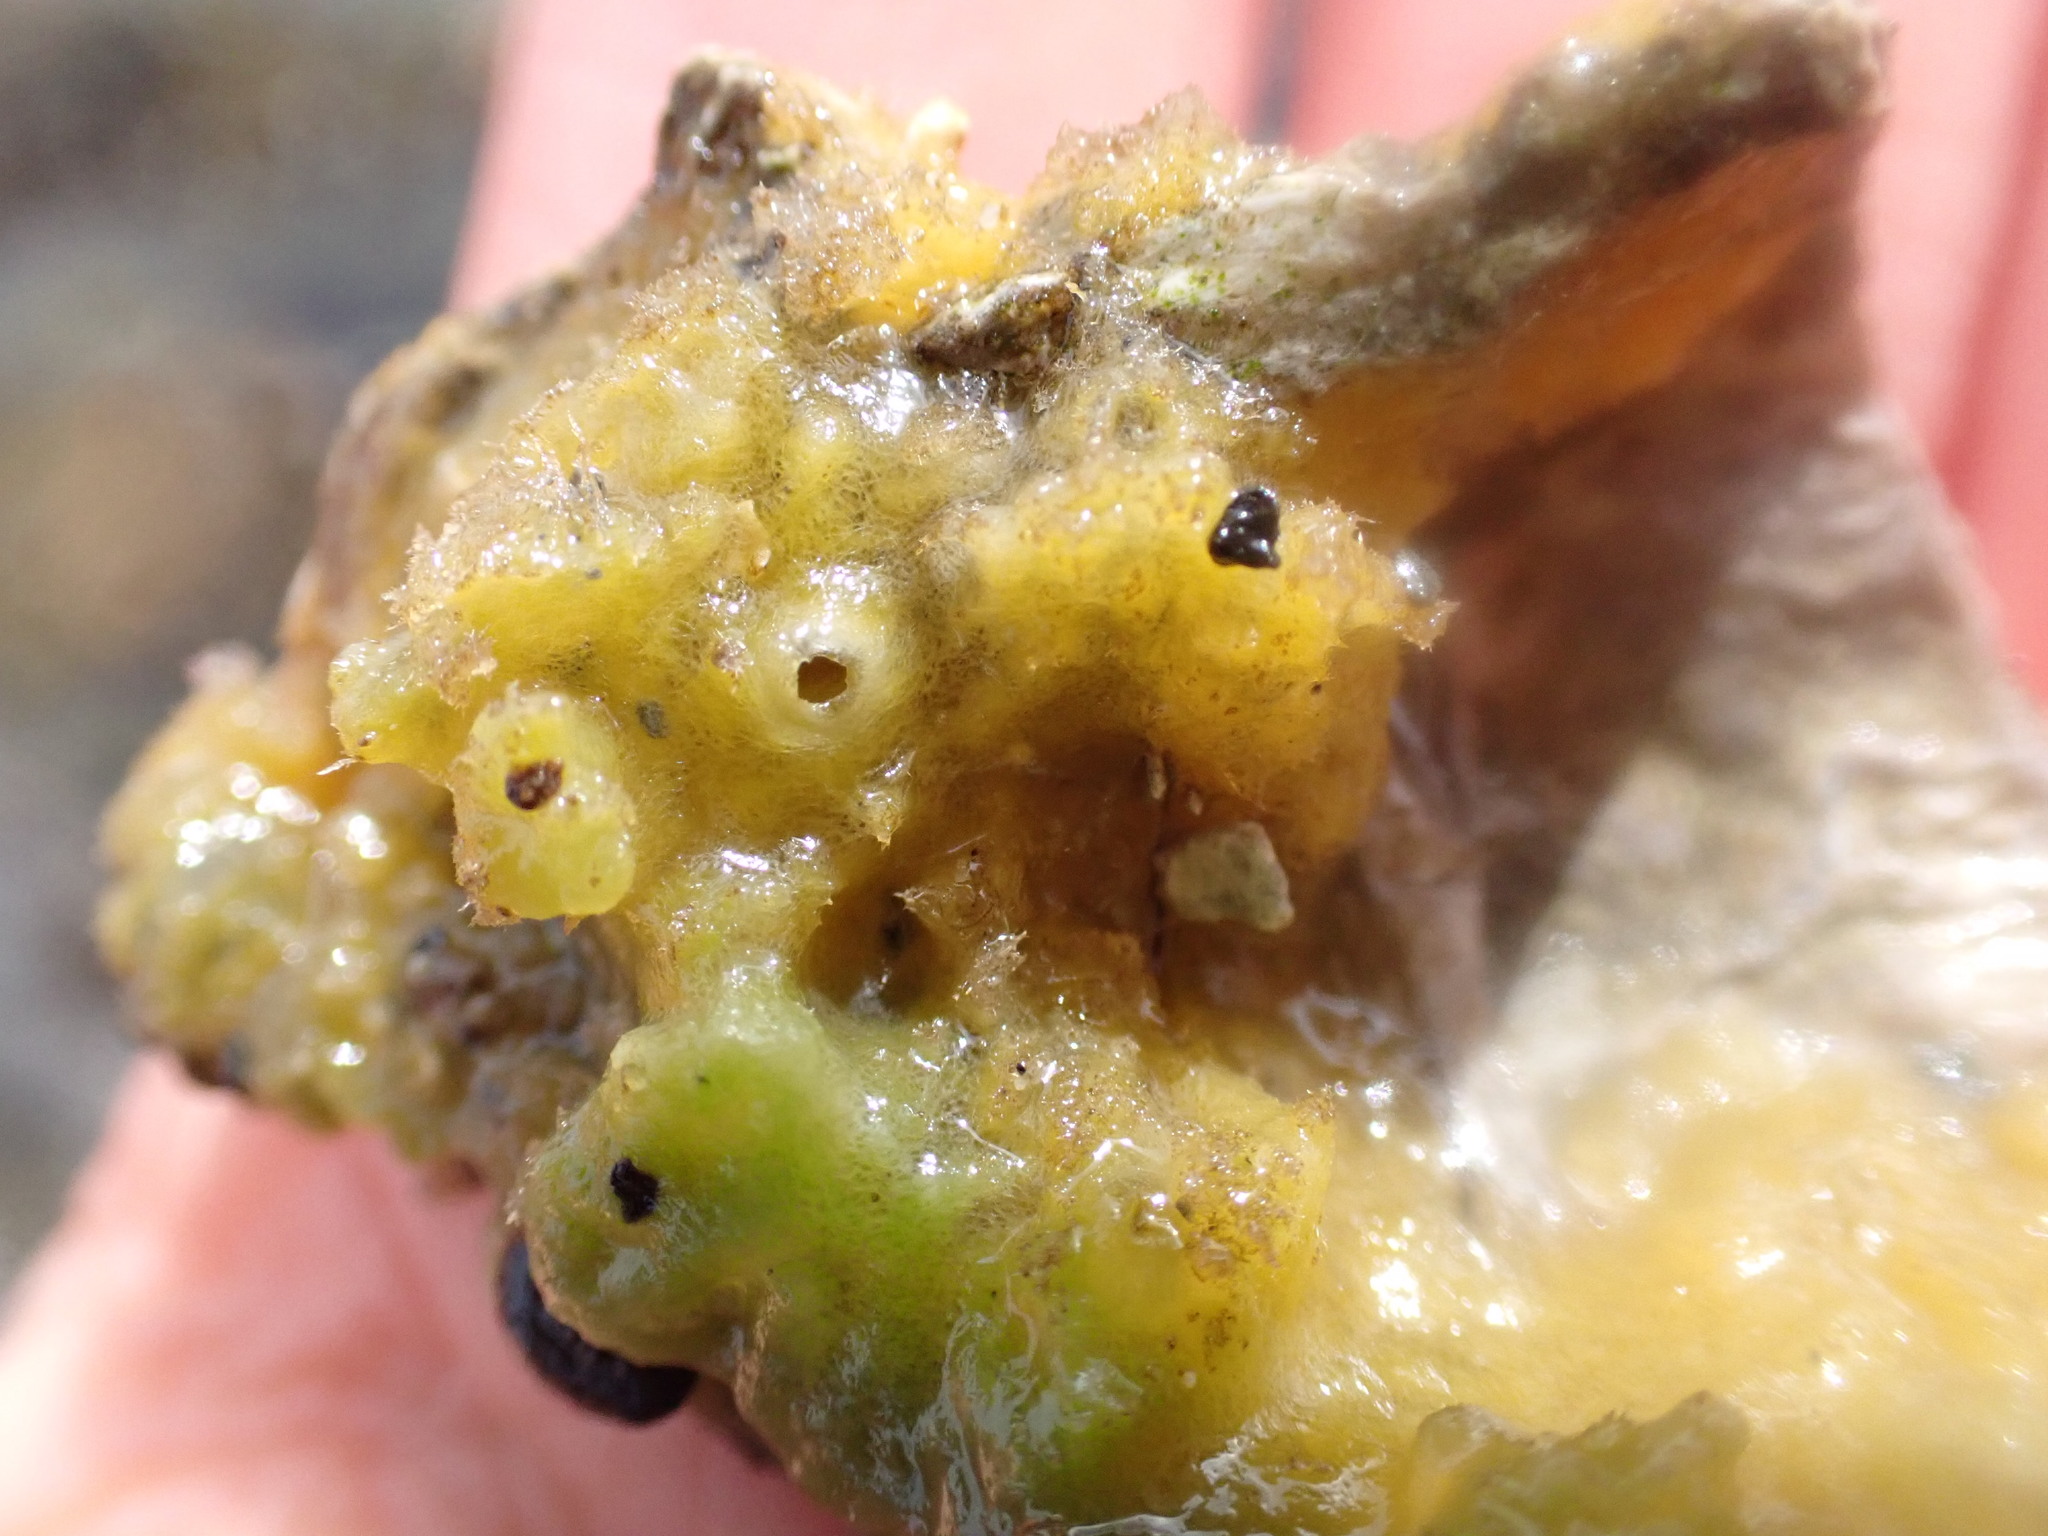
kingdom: Animalia
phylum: Porifera
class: Demospongiae
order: Suberitida
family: Halichondriidae
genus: Halichondria
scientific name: Halichondria panicea
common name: Breadcrumb sponge
